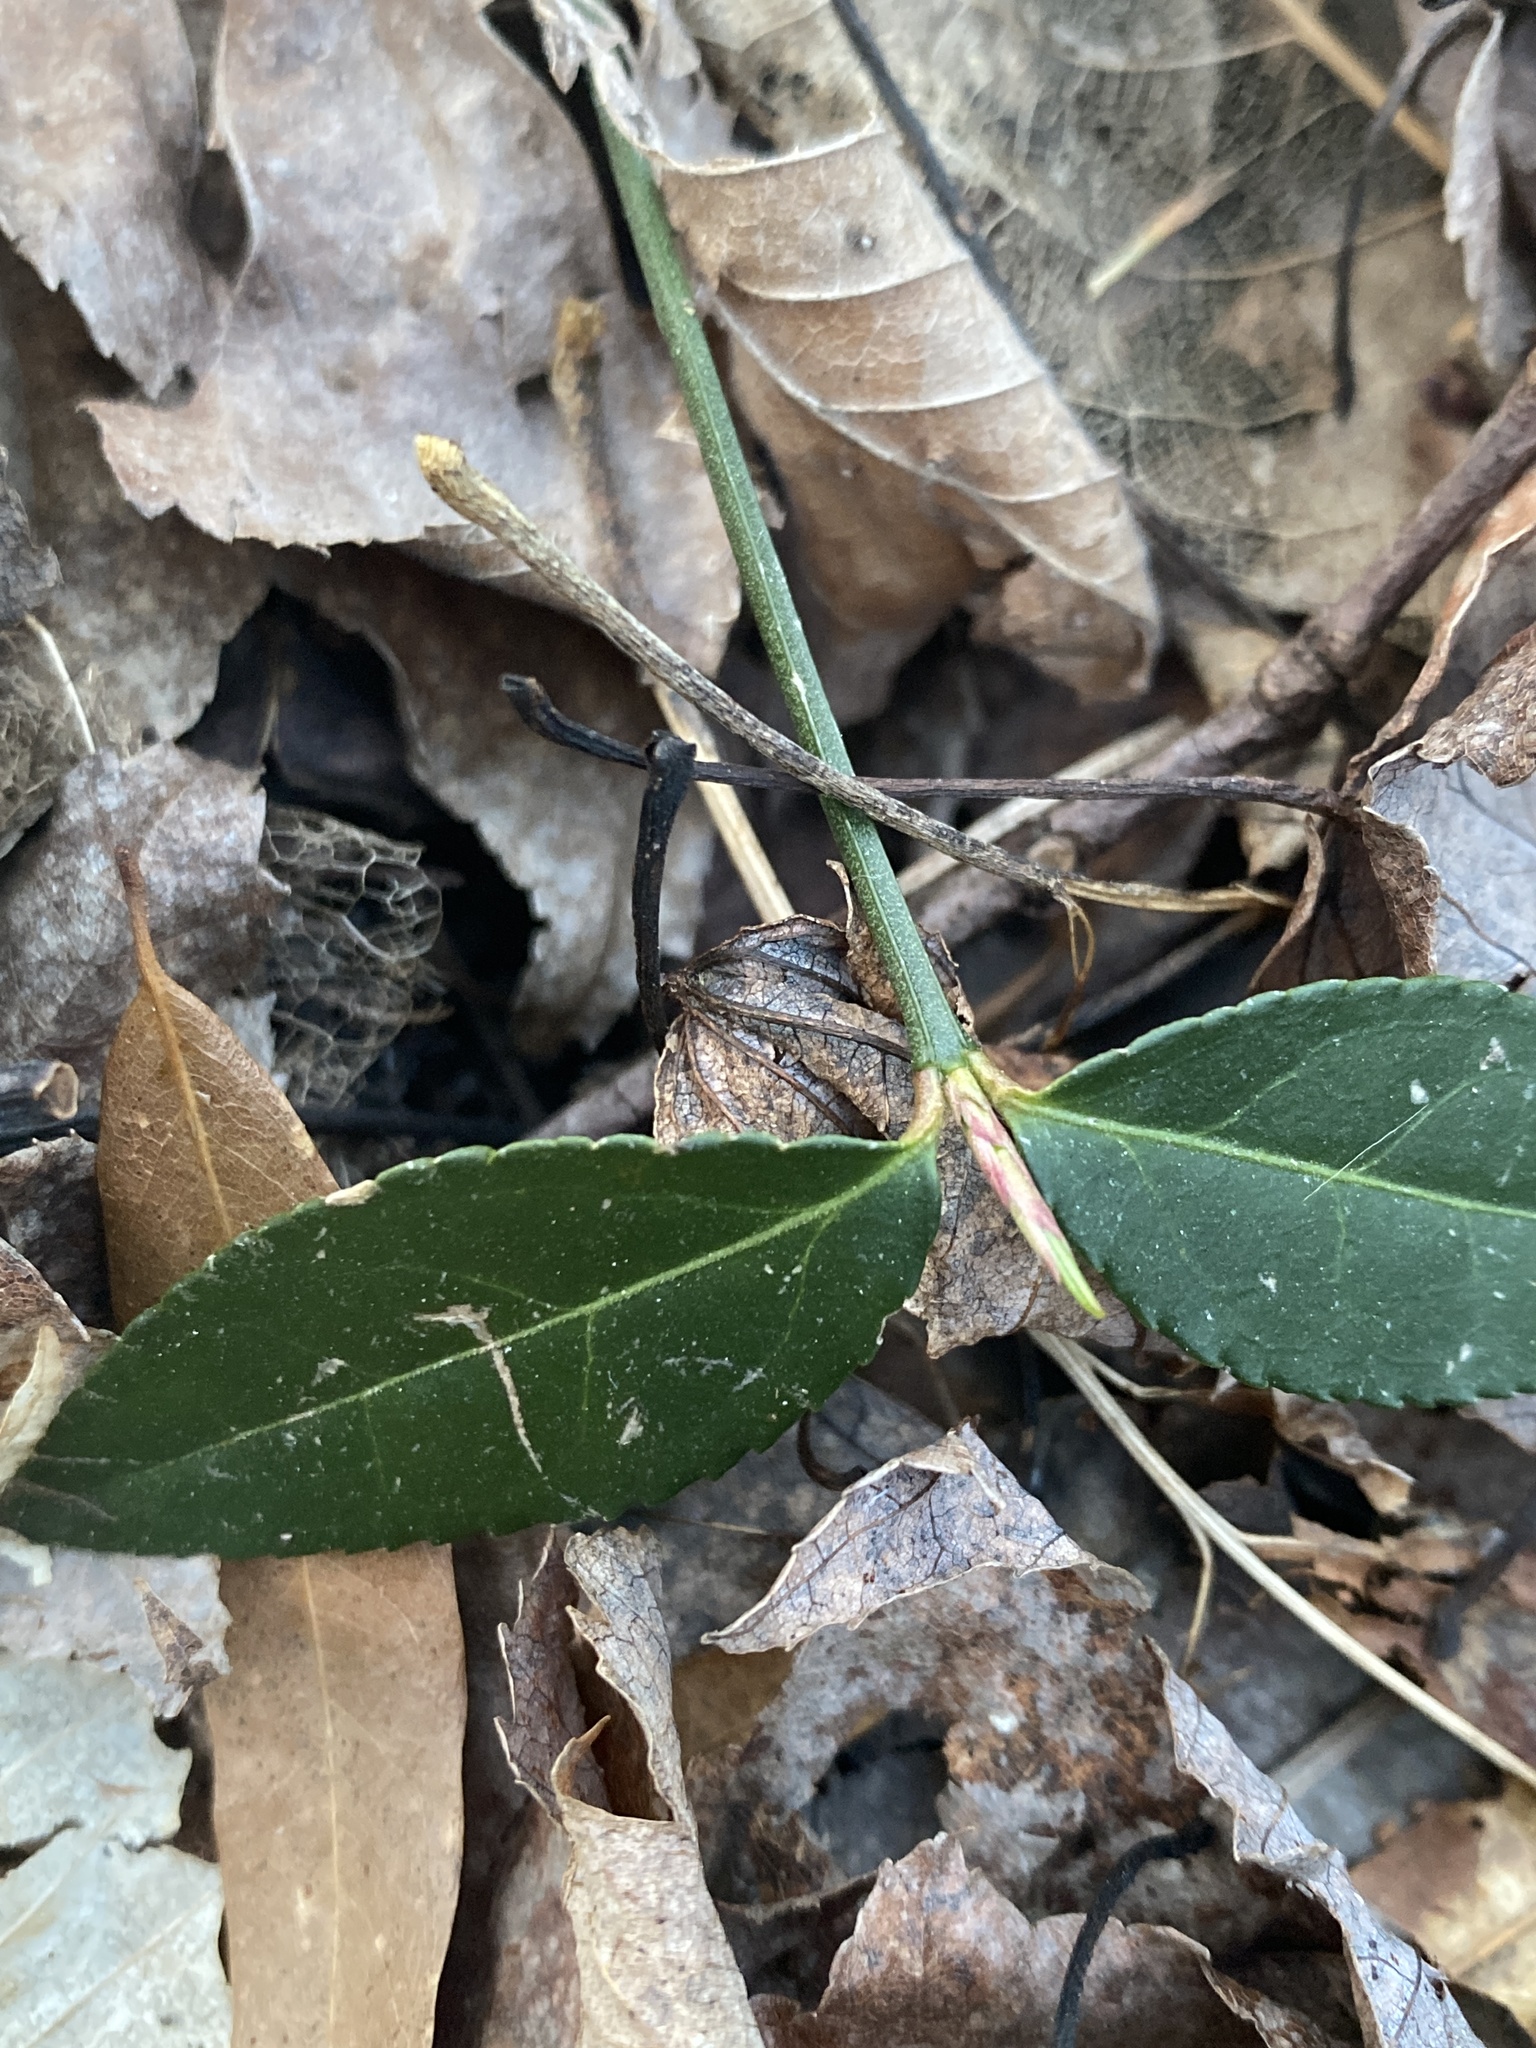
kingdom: Plantae
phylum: Tracheophyta
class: Magnoliopsida
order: Celastrales
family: Celastraceae
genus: Euonymus
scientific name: Euonymus americanus
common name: Bursting-heart
